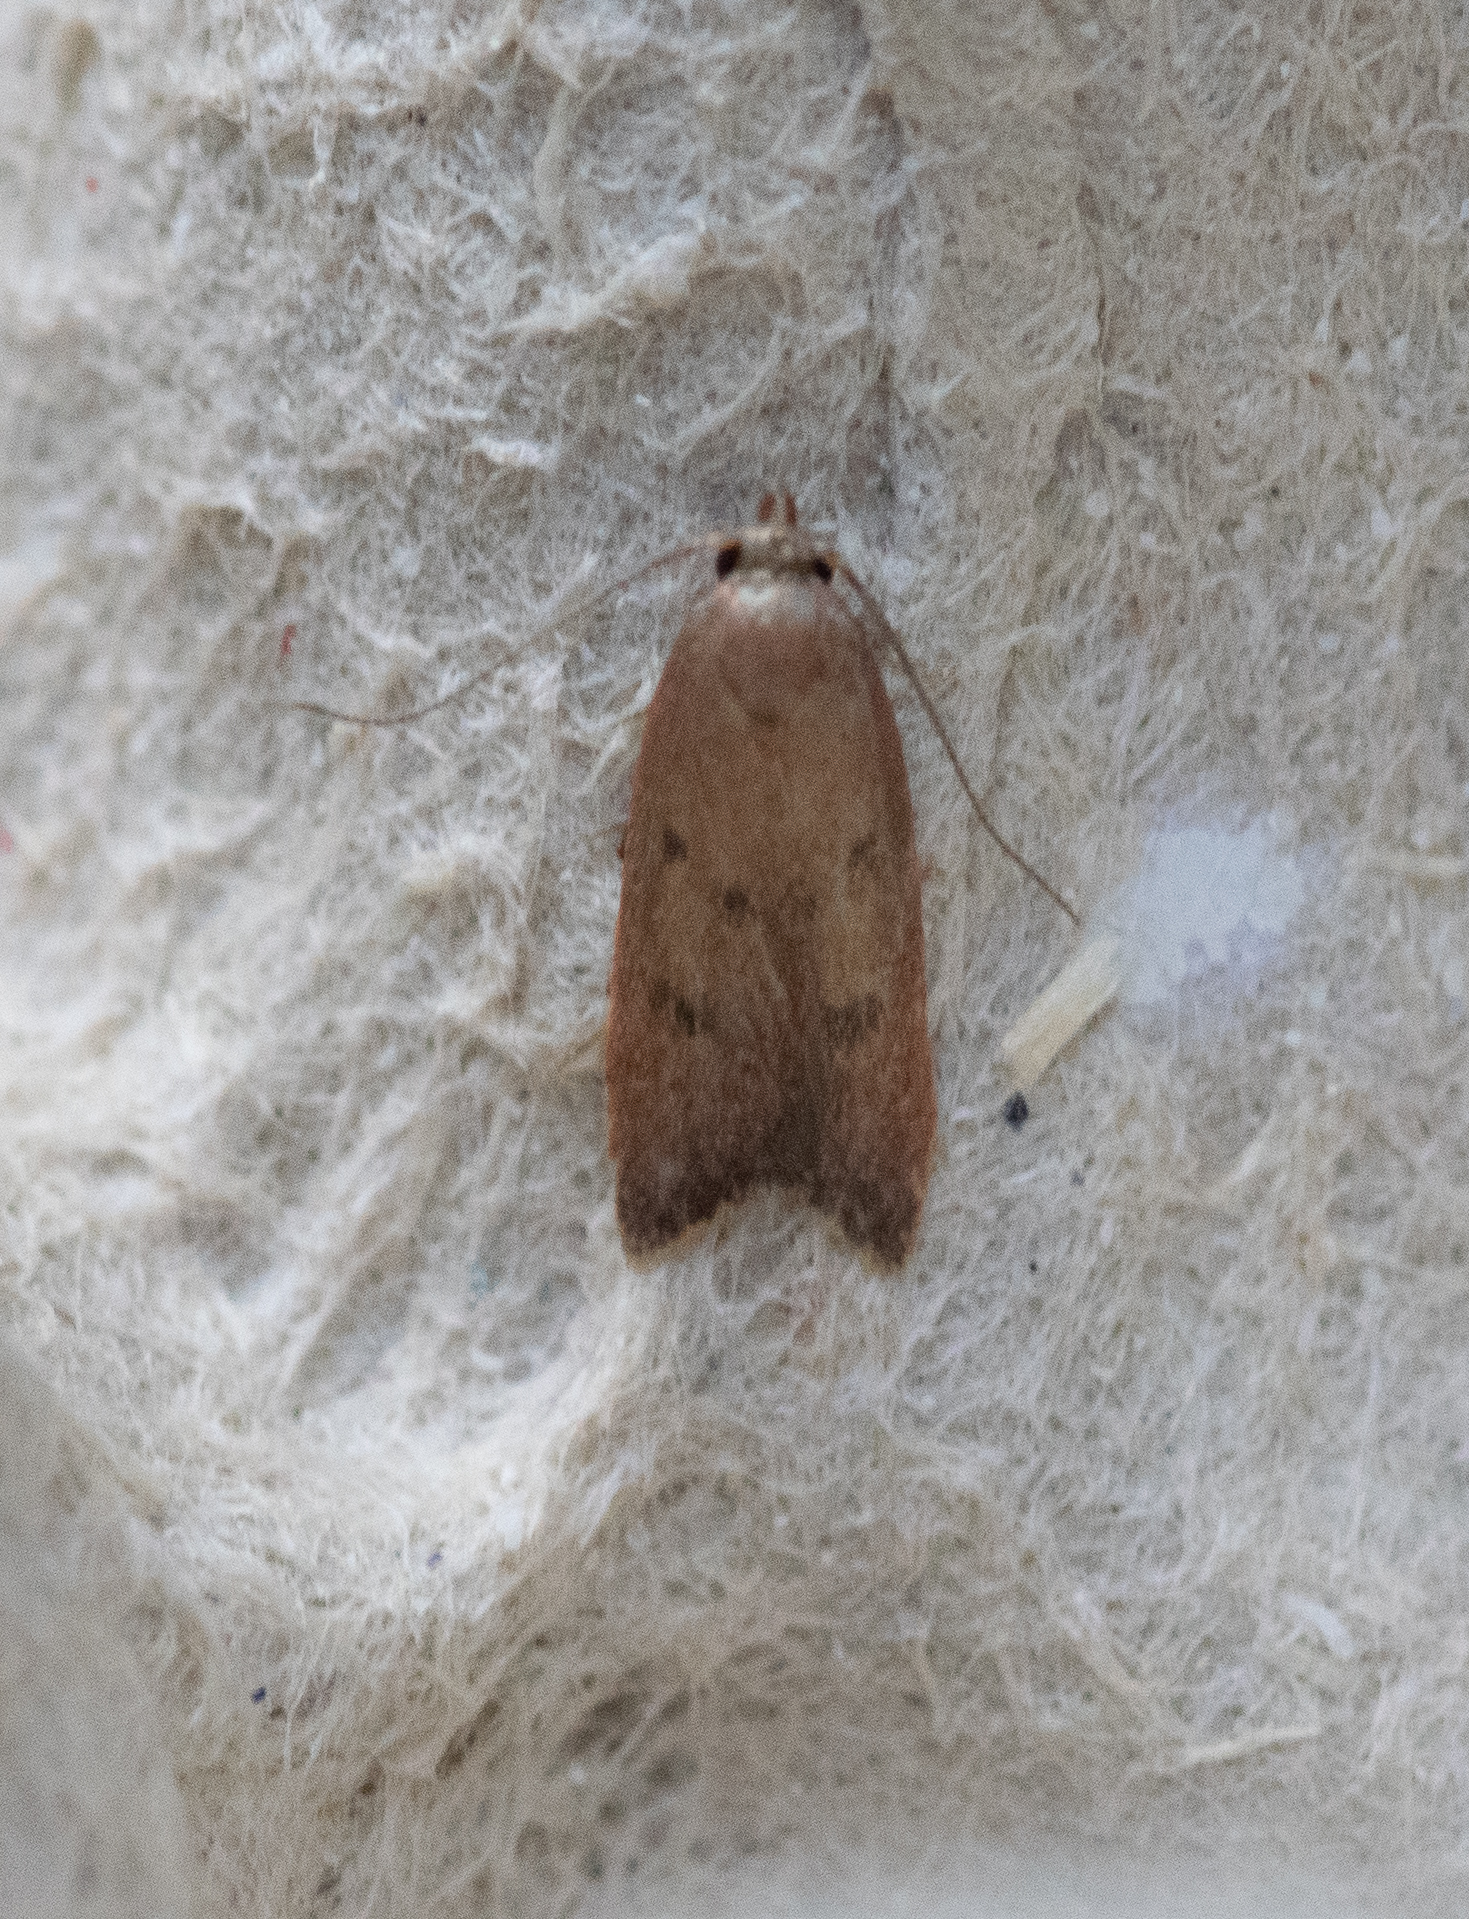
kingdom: Animalia
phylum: Arthropoda
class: Insecta
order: Lepidoptera
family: Oecophoridae
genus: Tachystola
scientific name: Tachystola acroxantha
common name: Ruddy streak
